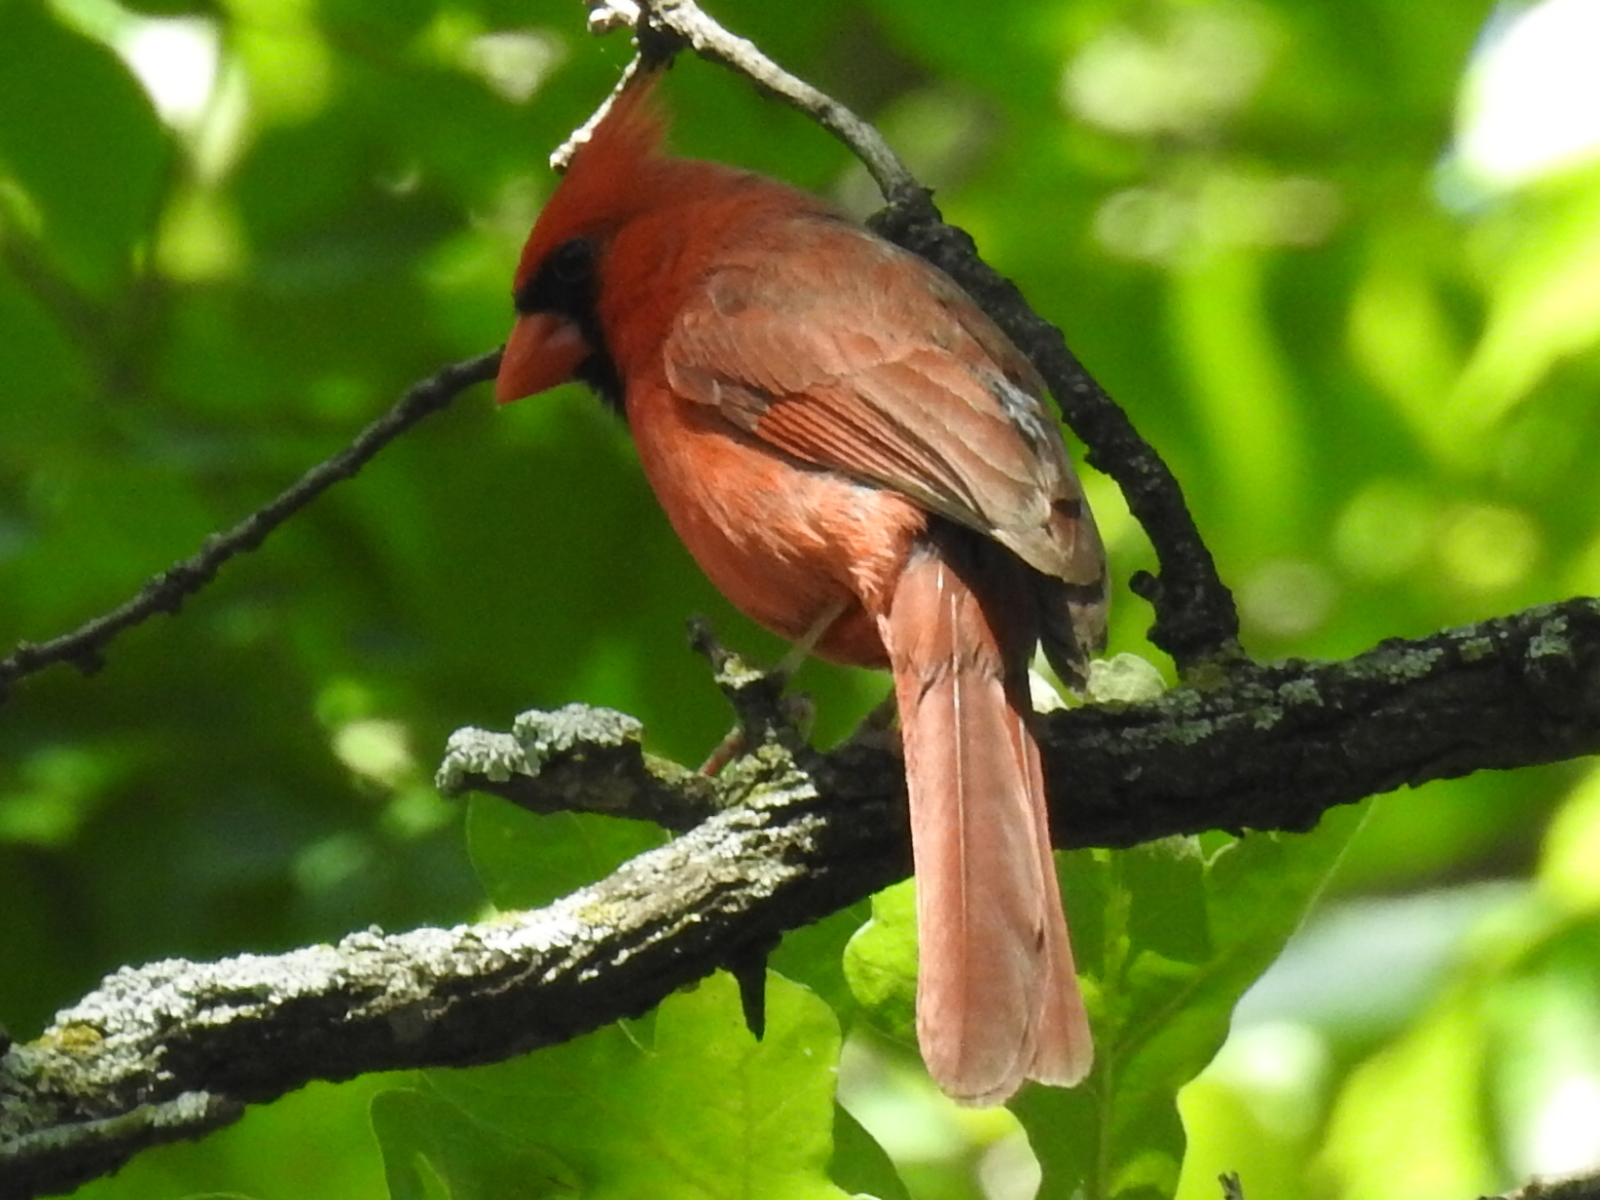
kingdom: Animalia
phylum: Chordata
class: Aves
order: Passeriformes
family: Cardinalidae
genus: Cardinalis
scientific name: Cardinalis cardinalis
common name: Northern cardinal
